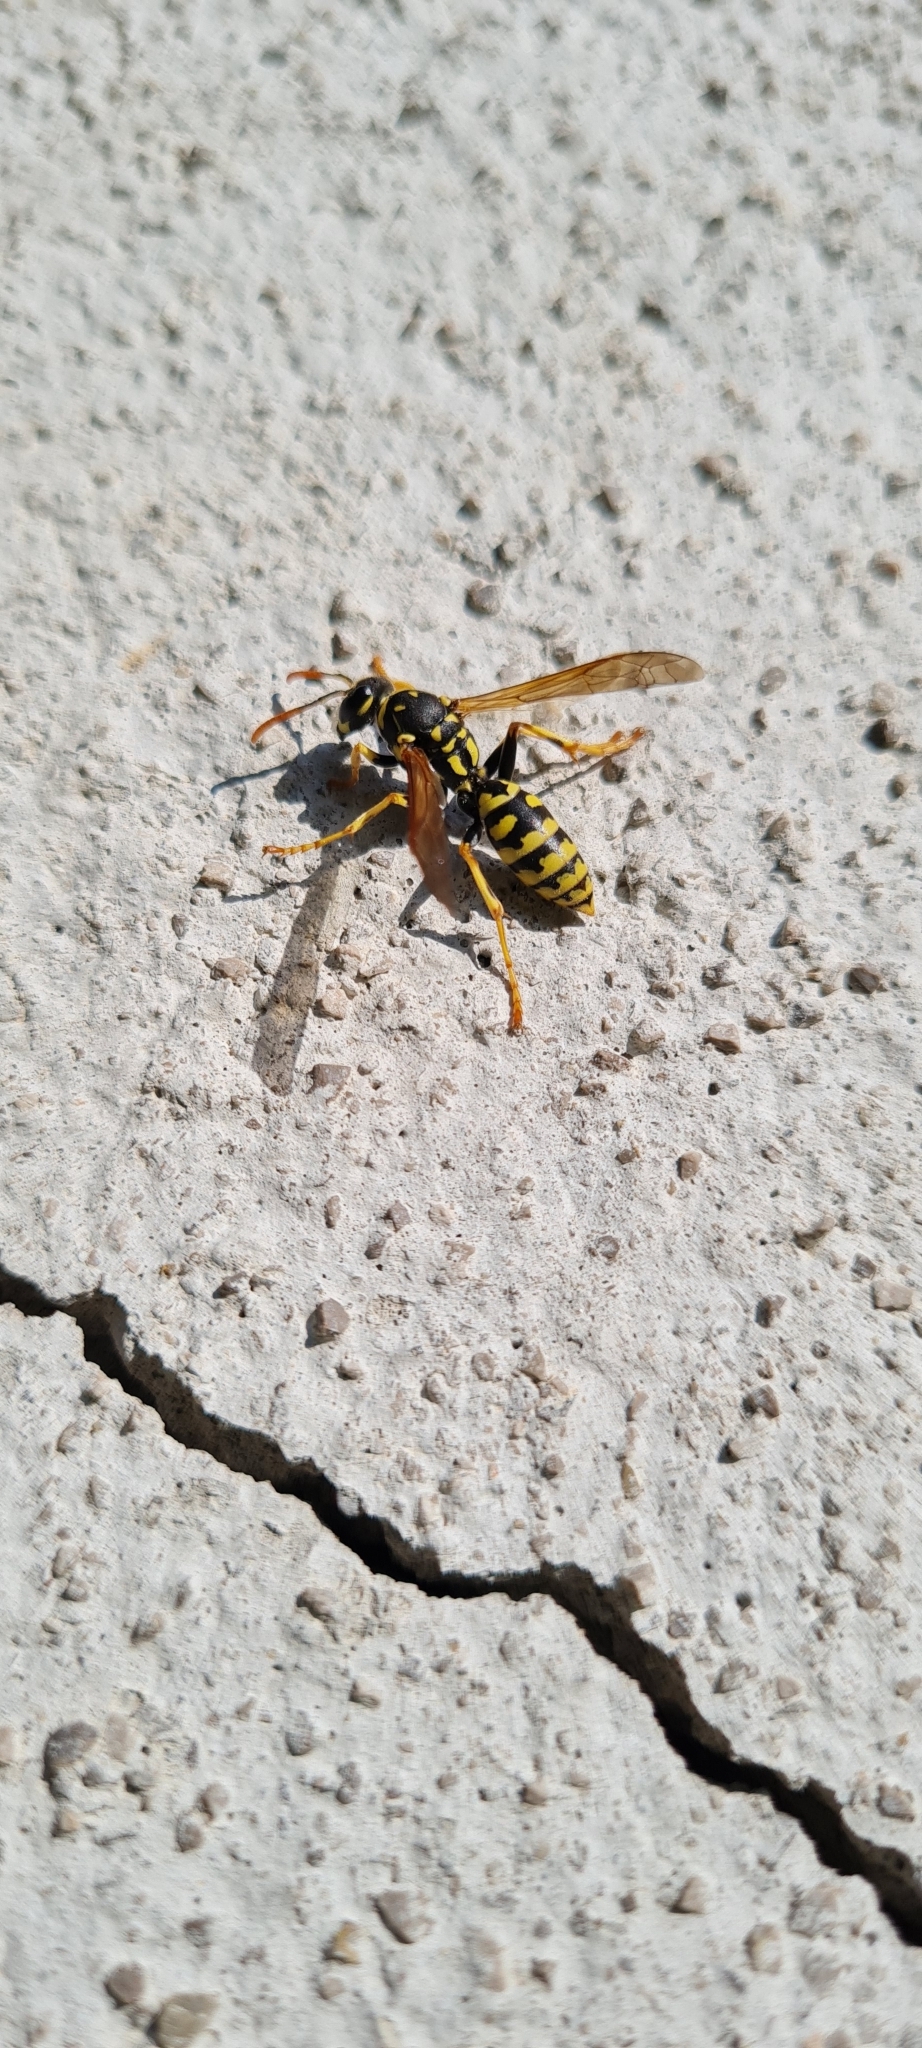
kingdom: Animalia
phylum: Arthropoda
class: Insecta
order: Hymenoptera
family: Eumenidae
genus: Polistes
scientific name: Polistes dominula
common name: Paper wasp
